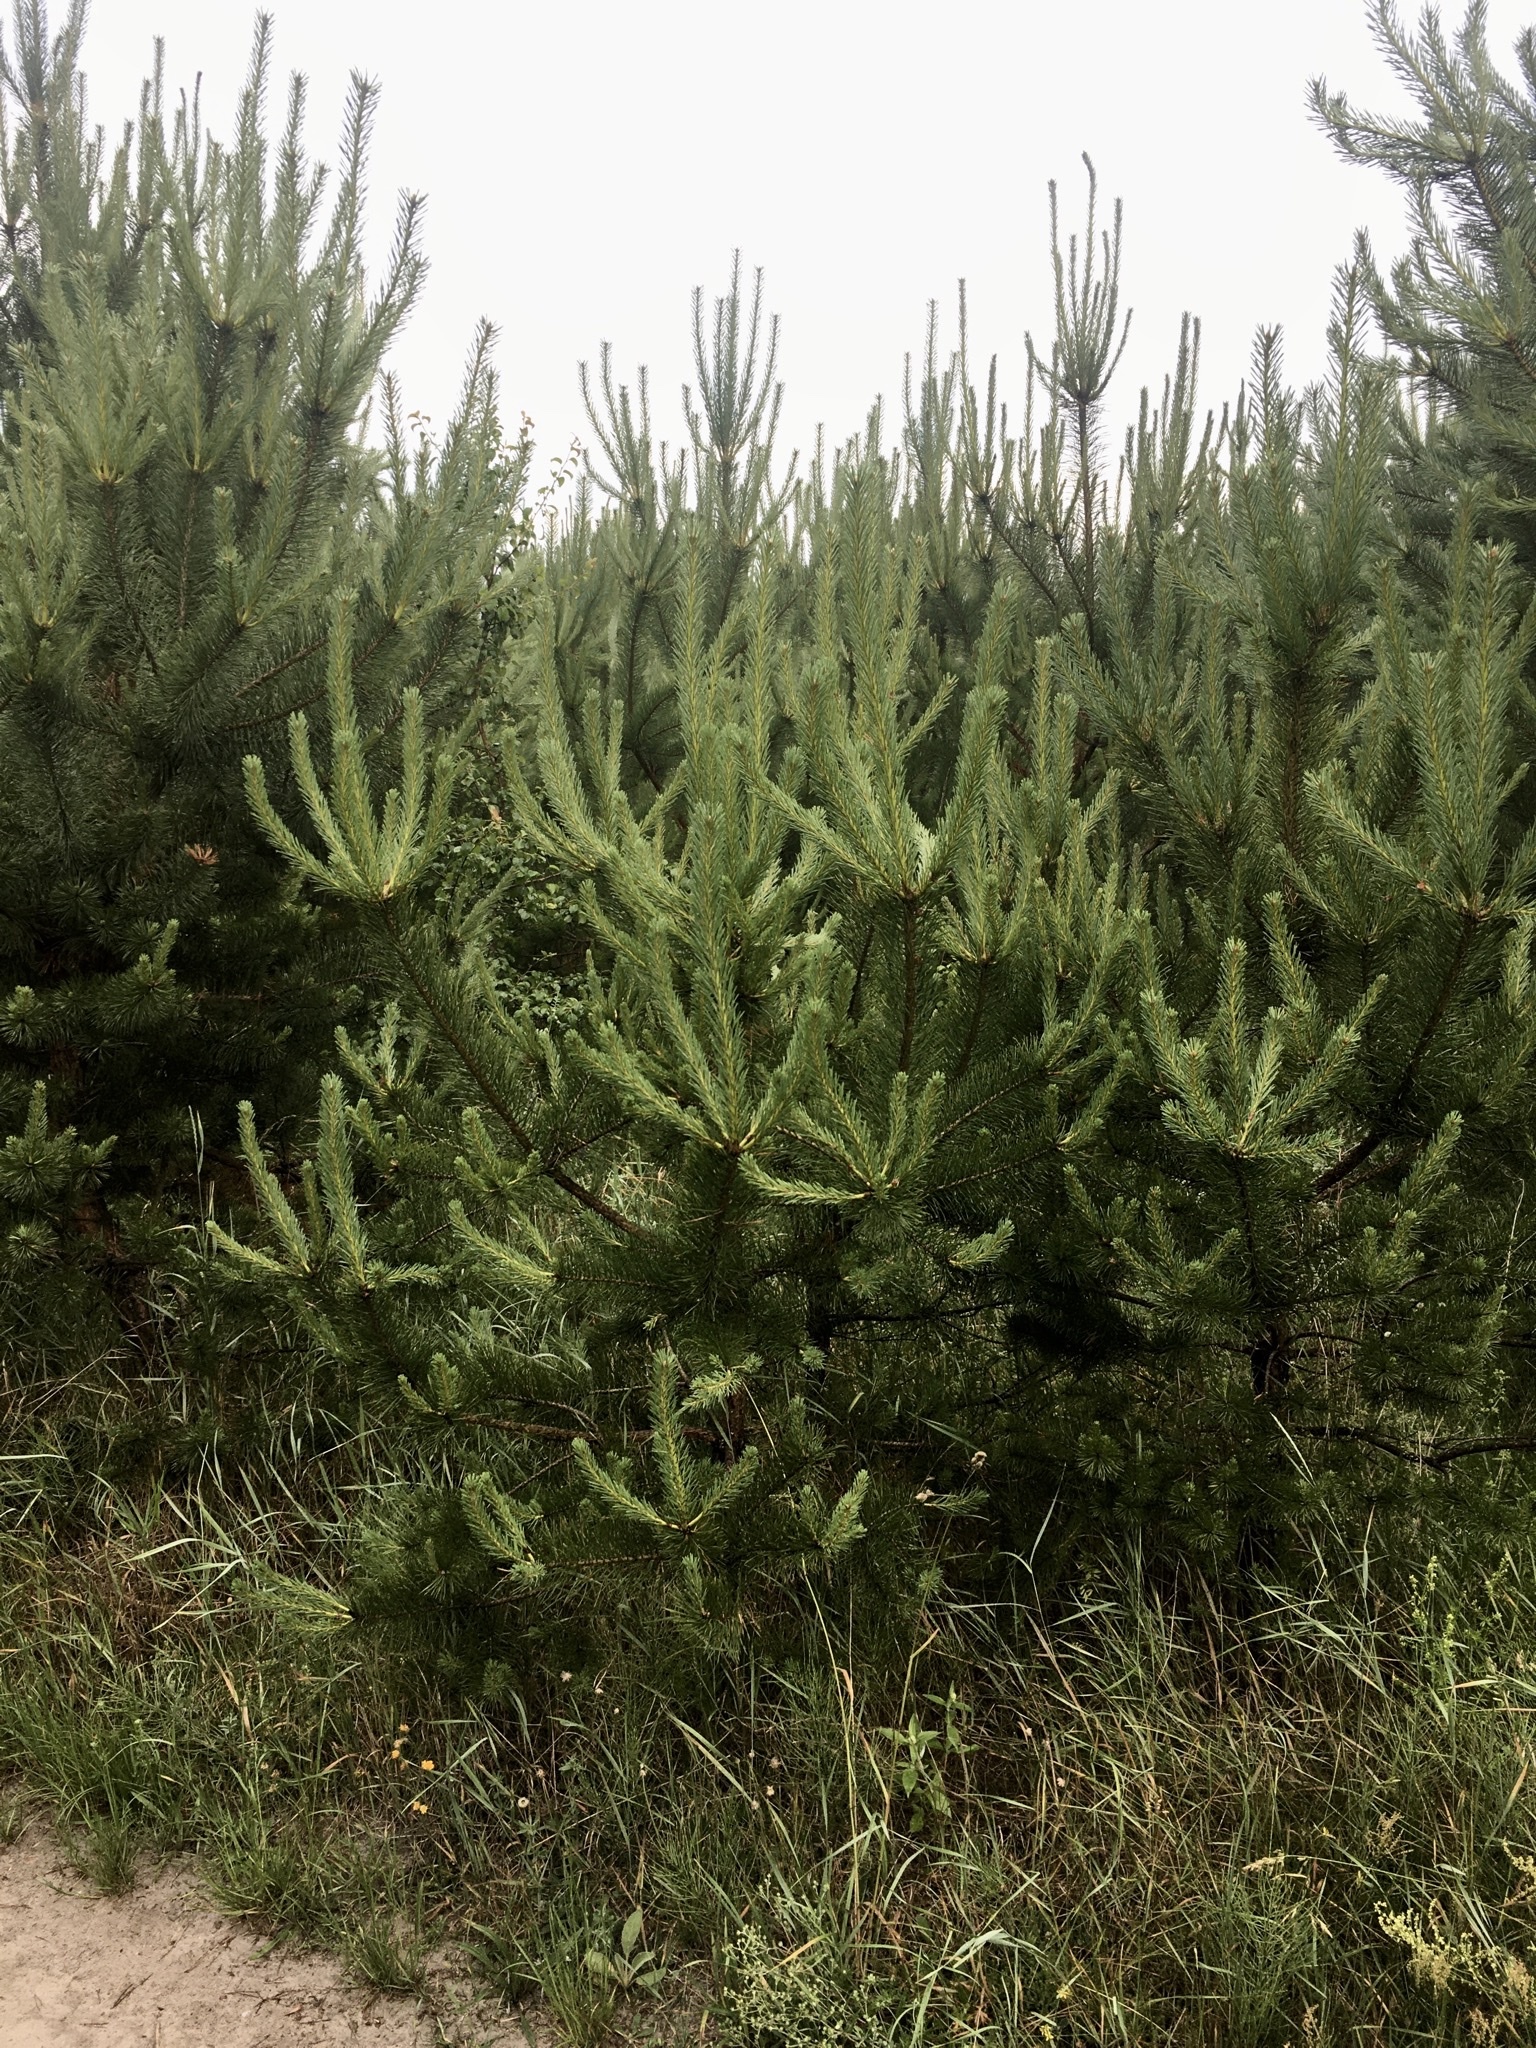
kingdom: Plantae
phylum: Tracheophyta
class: Pinopsida
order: Pinales
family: Pinaceae
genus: Pinus
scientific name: Pinus sylvestris
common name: Scots pine
